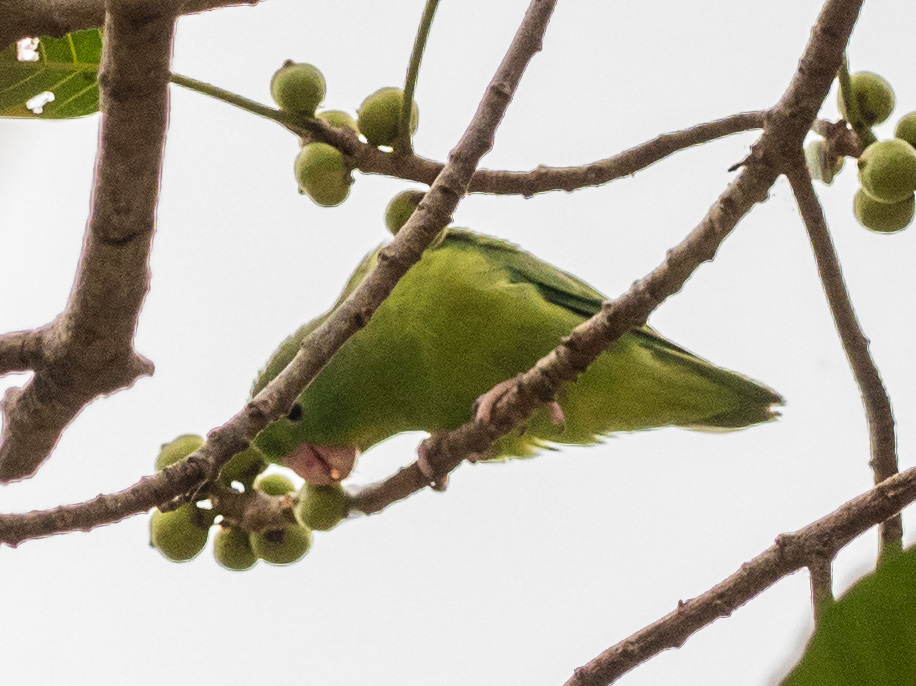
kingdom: Animalia
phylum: Chordata
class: Aves
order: Psittaciformes
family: Psittacidae
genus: Forpus
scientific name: Forpus conspicillatus
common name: Spectacled parrotlet
